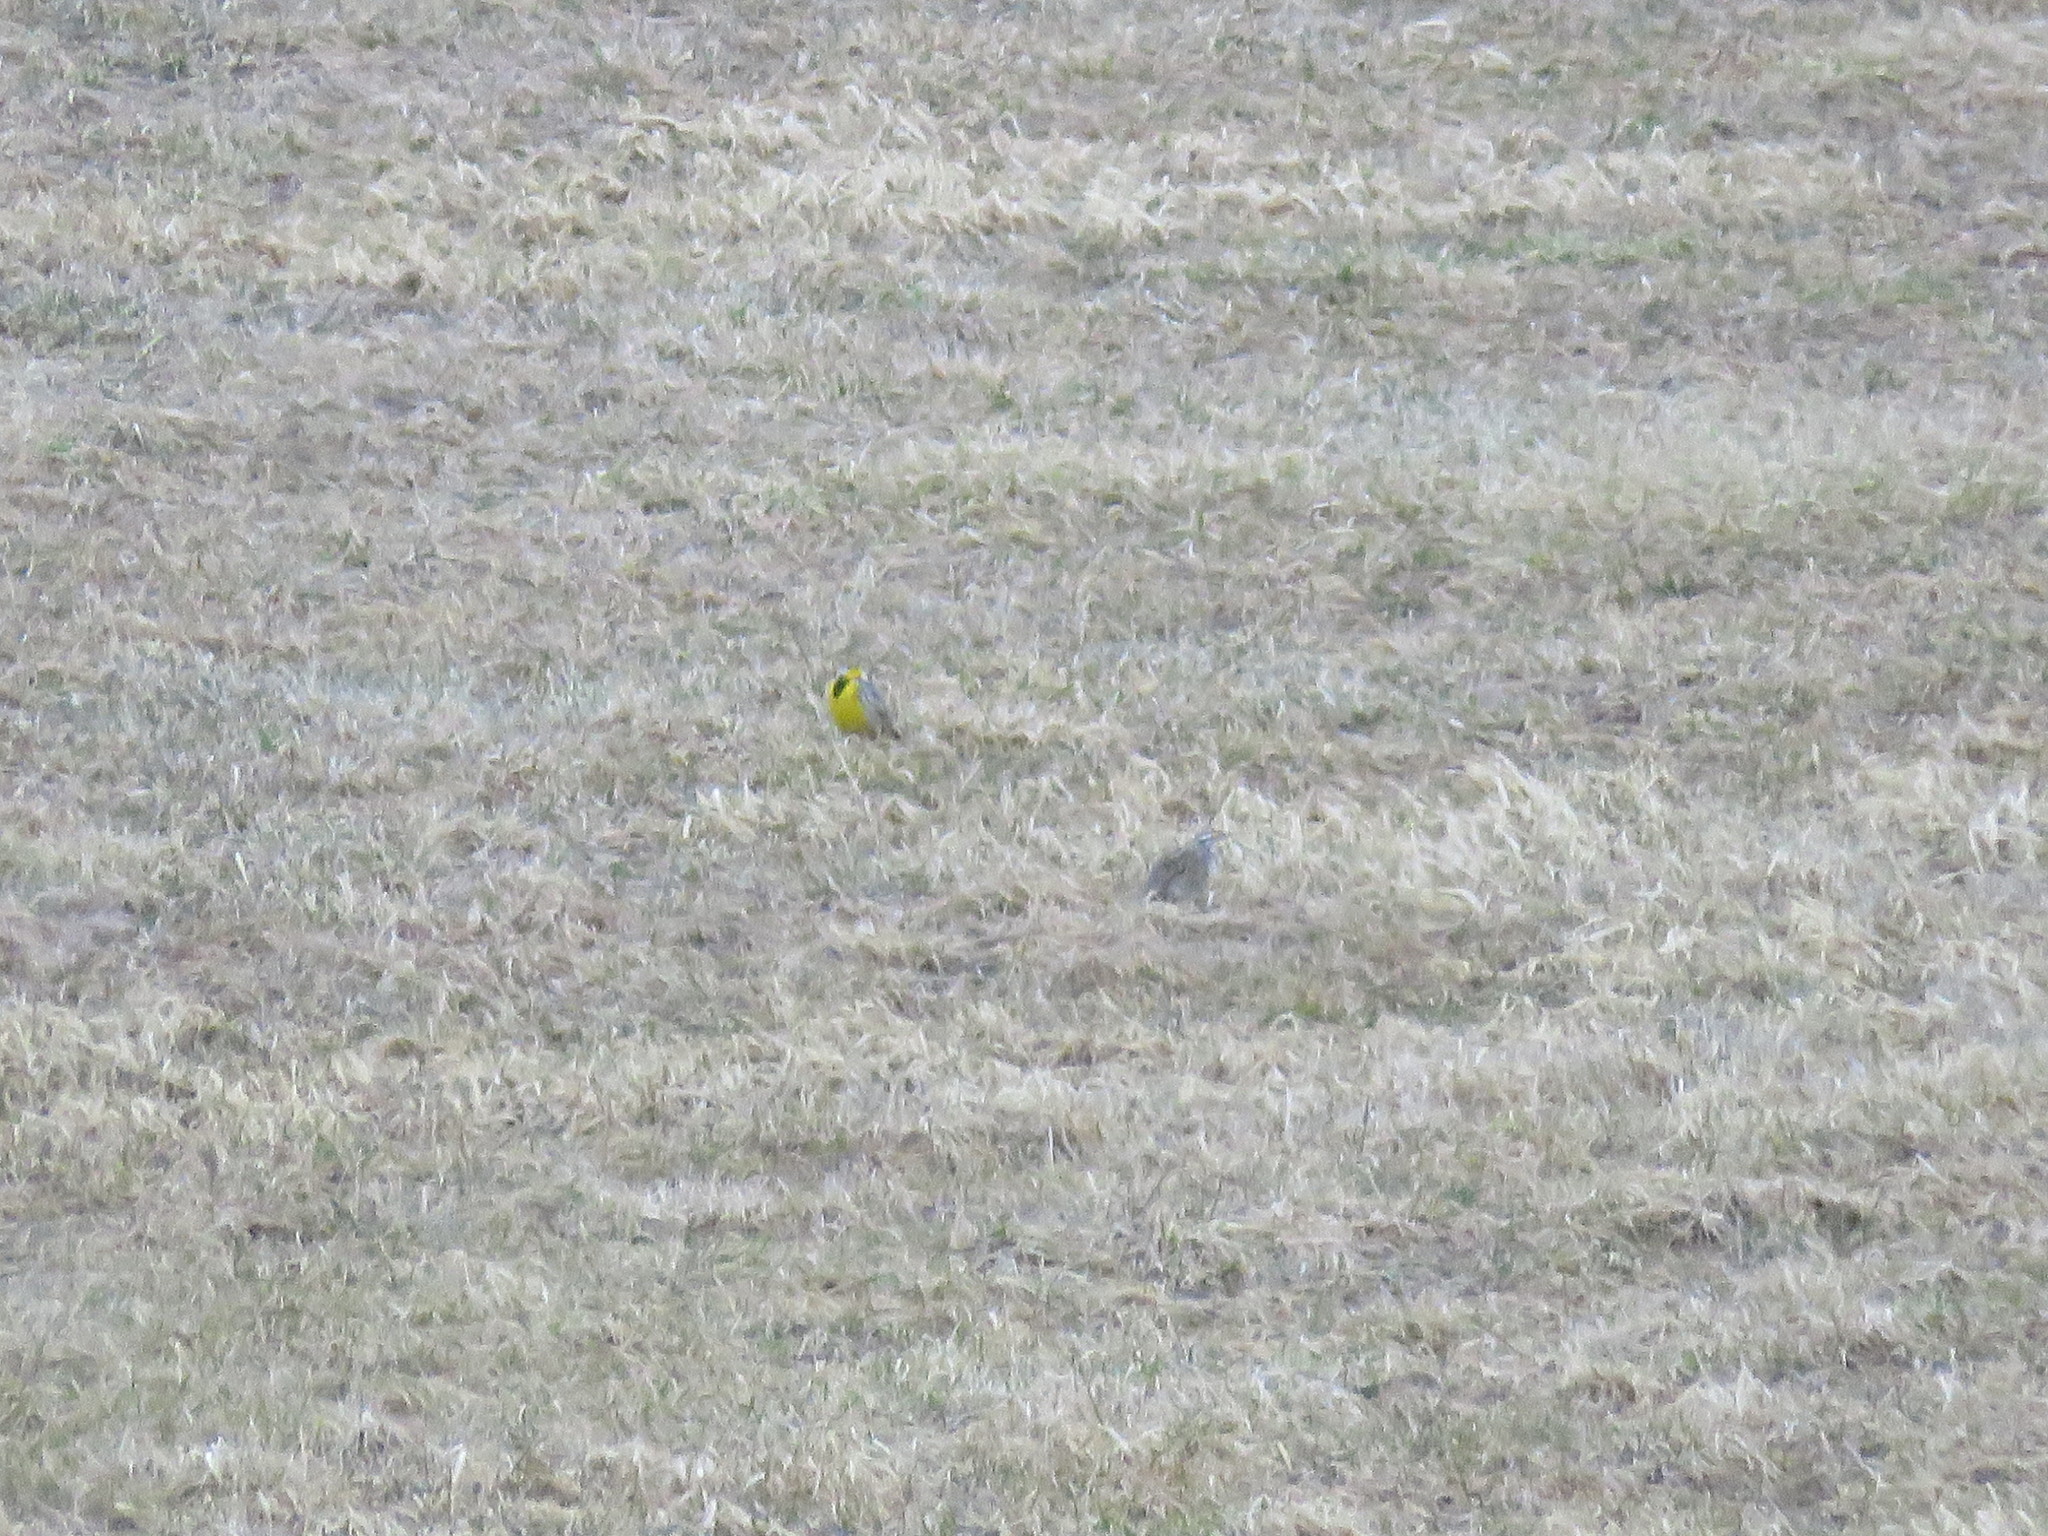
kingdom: Animalia
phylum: Chordata
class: Aves
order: Passeriformes
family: Icteridae
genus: Sturnella
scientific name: Sturnella magna
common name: Eastern meadowlark
